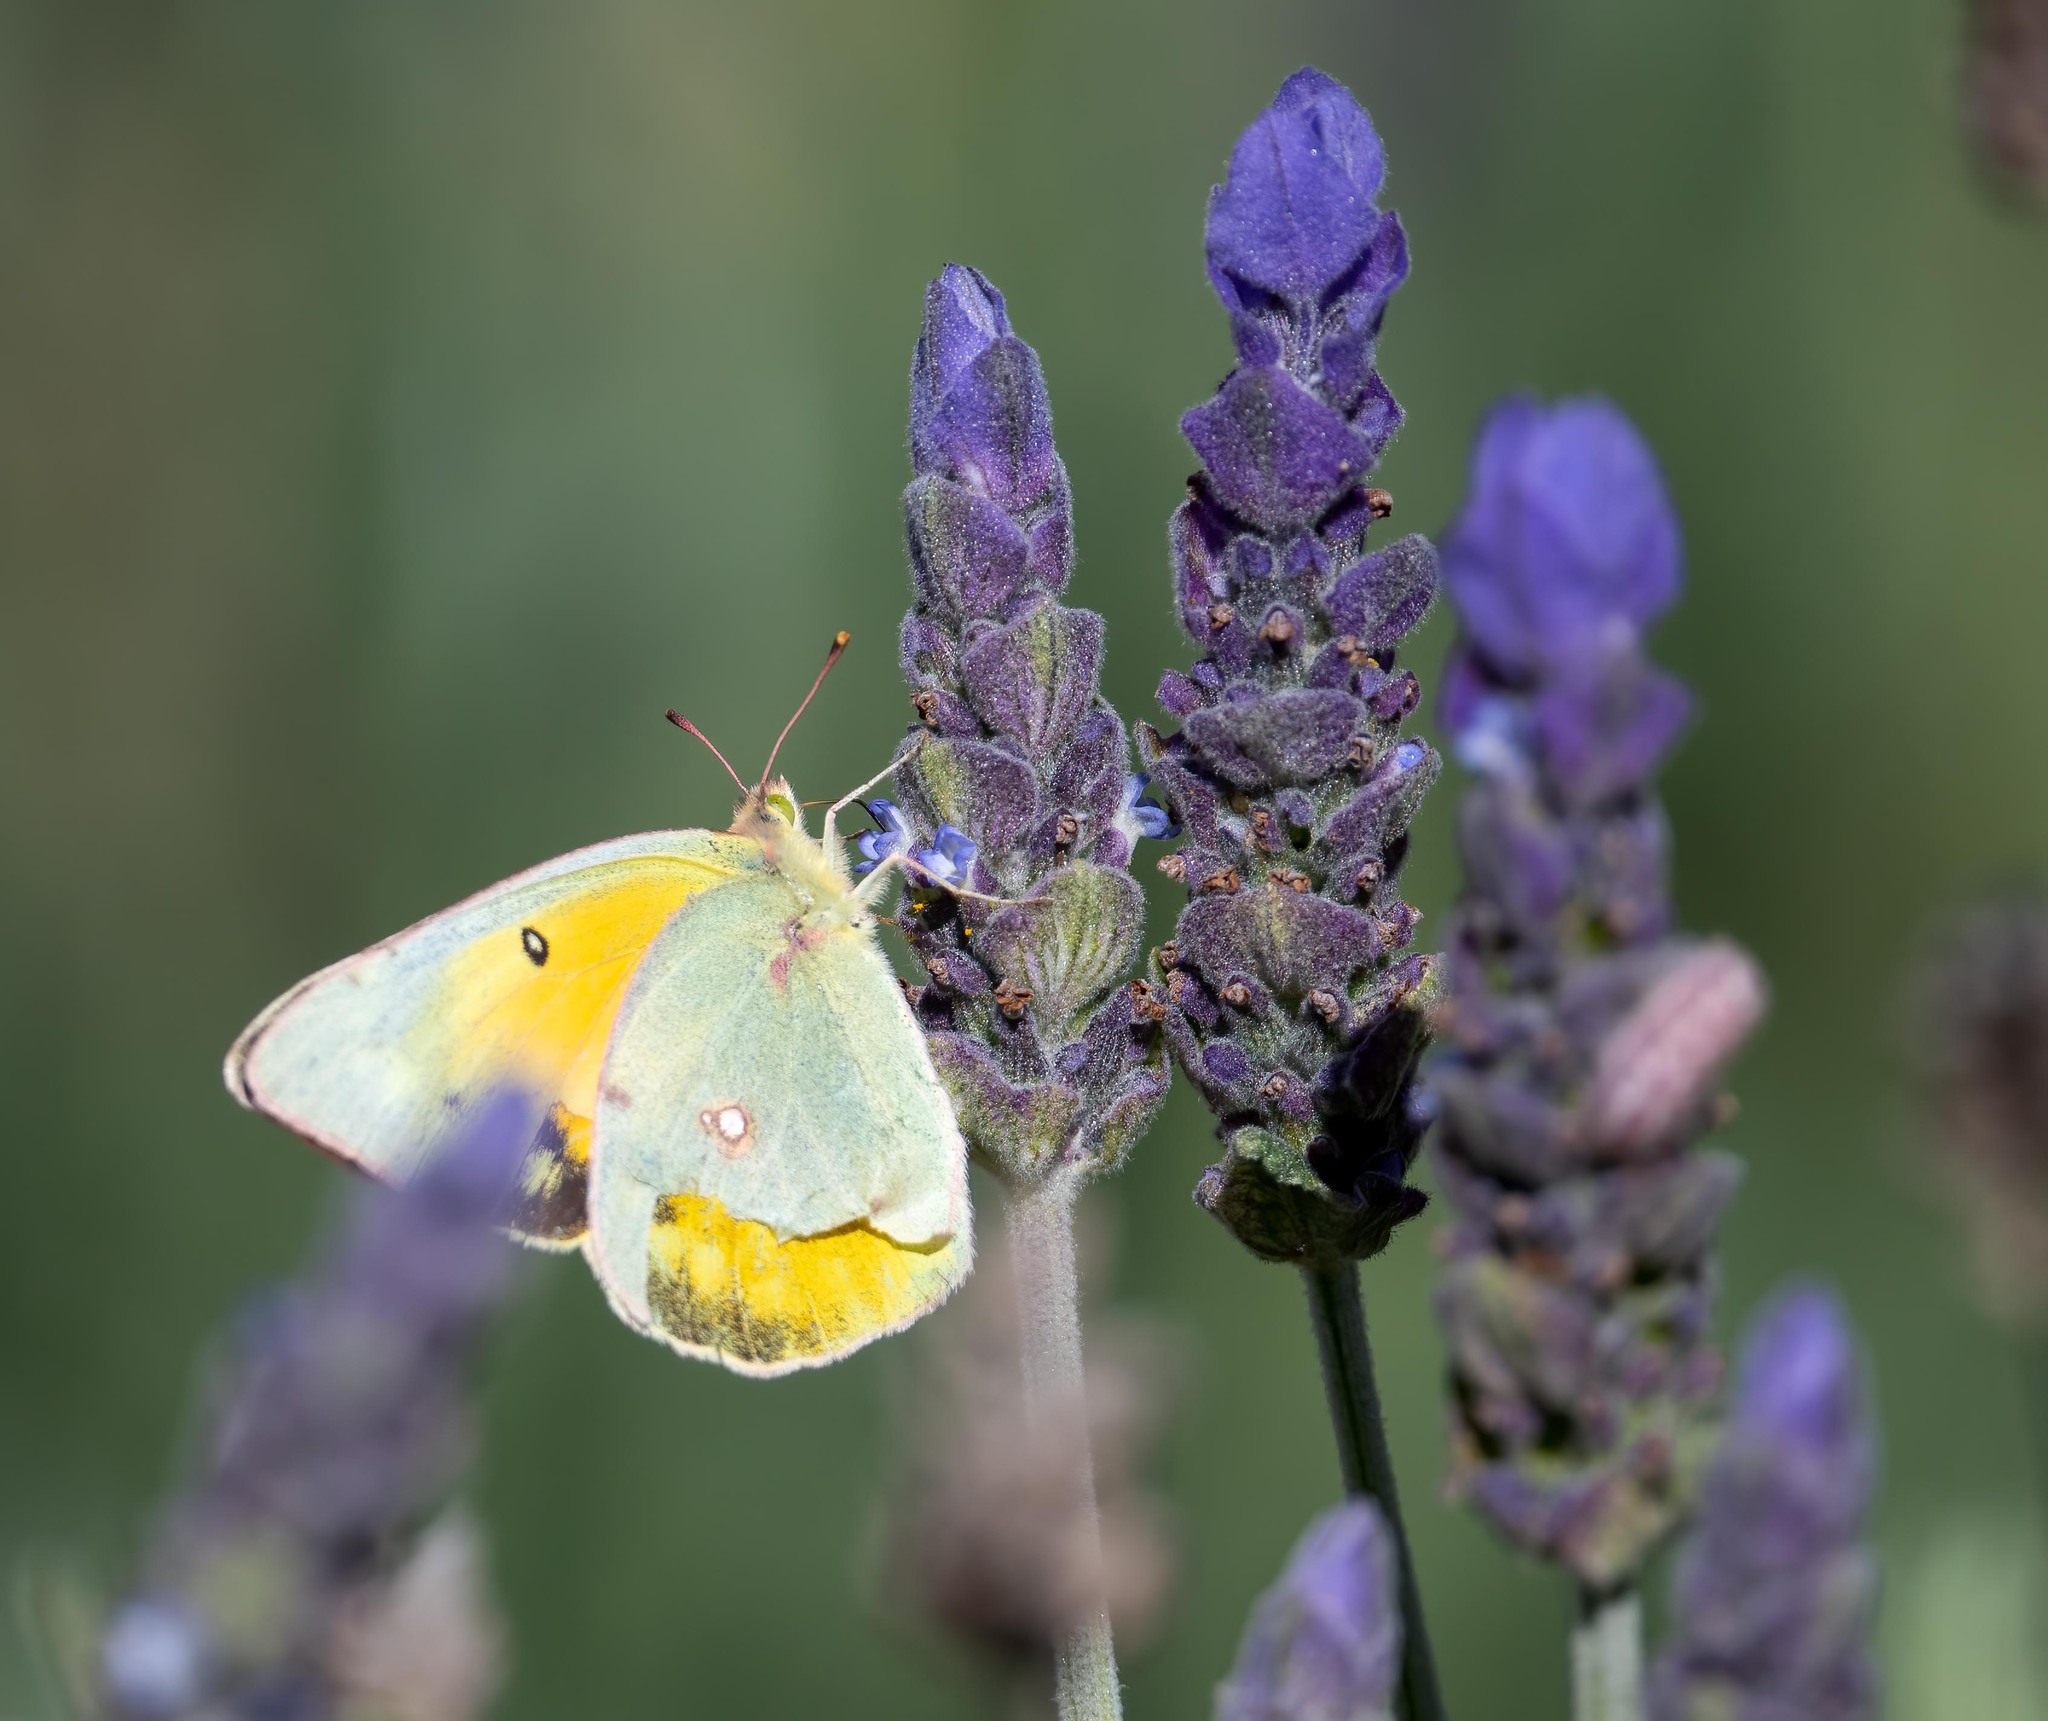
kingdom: Animalia
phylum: Arthropoda
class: Insecta
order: Lepidoptera
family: Pieridae
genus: Colias
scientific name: Colias eurytheme
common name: Alfalfa butterfly
